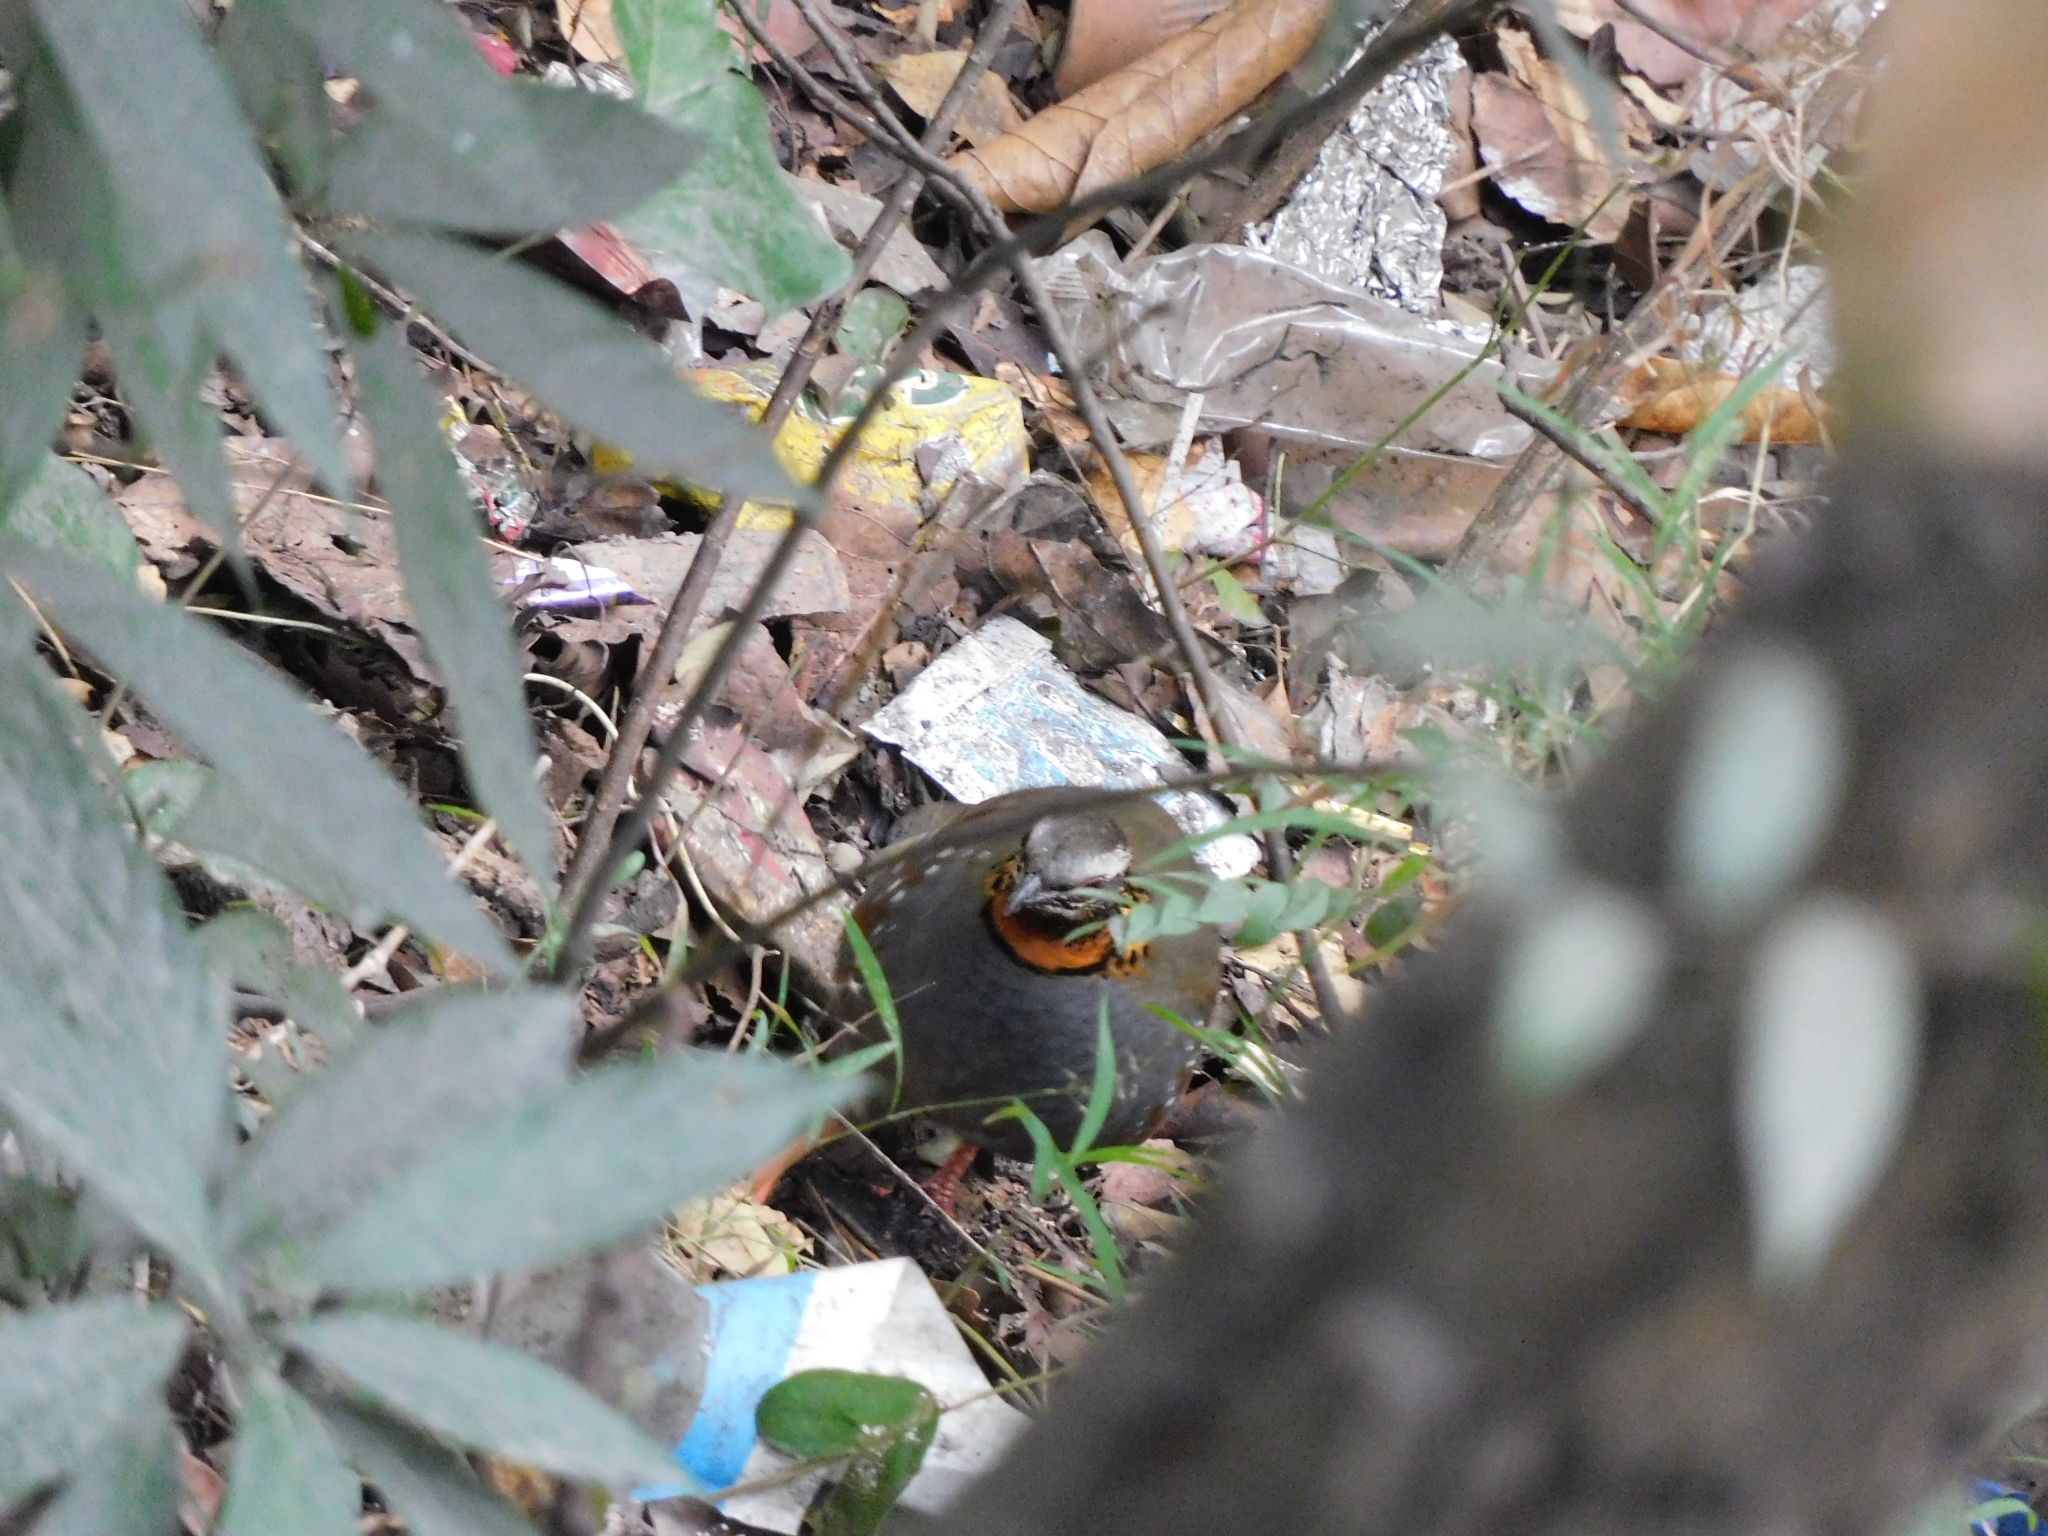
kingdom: Animalia
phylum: Chordata
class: Aves
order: Galliformes
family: Phasianidae
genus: Arborophila
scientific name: Arborophila rufogularis
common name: Rufous-throated partridge
